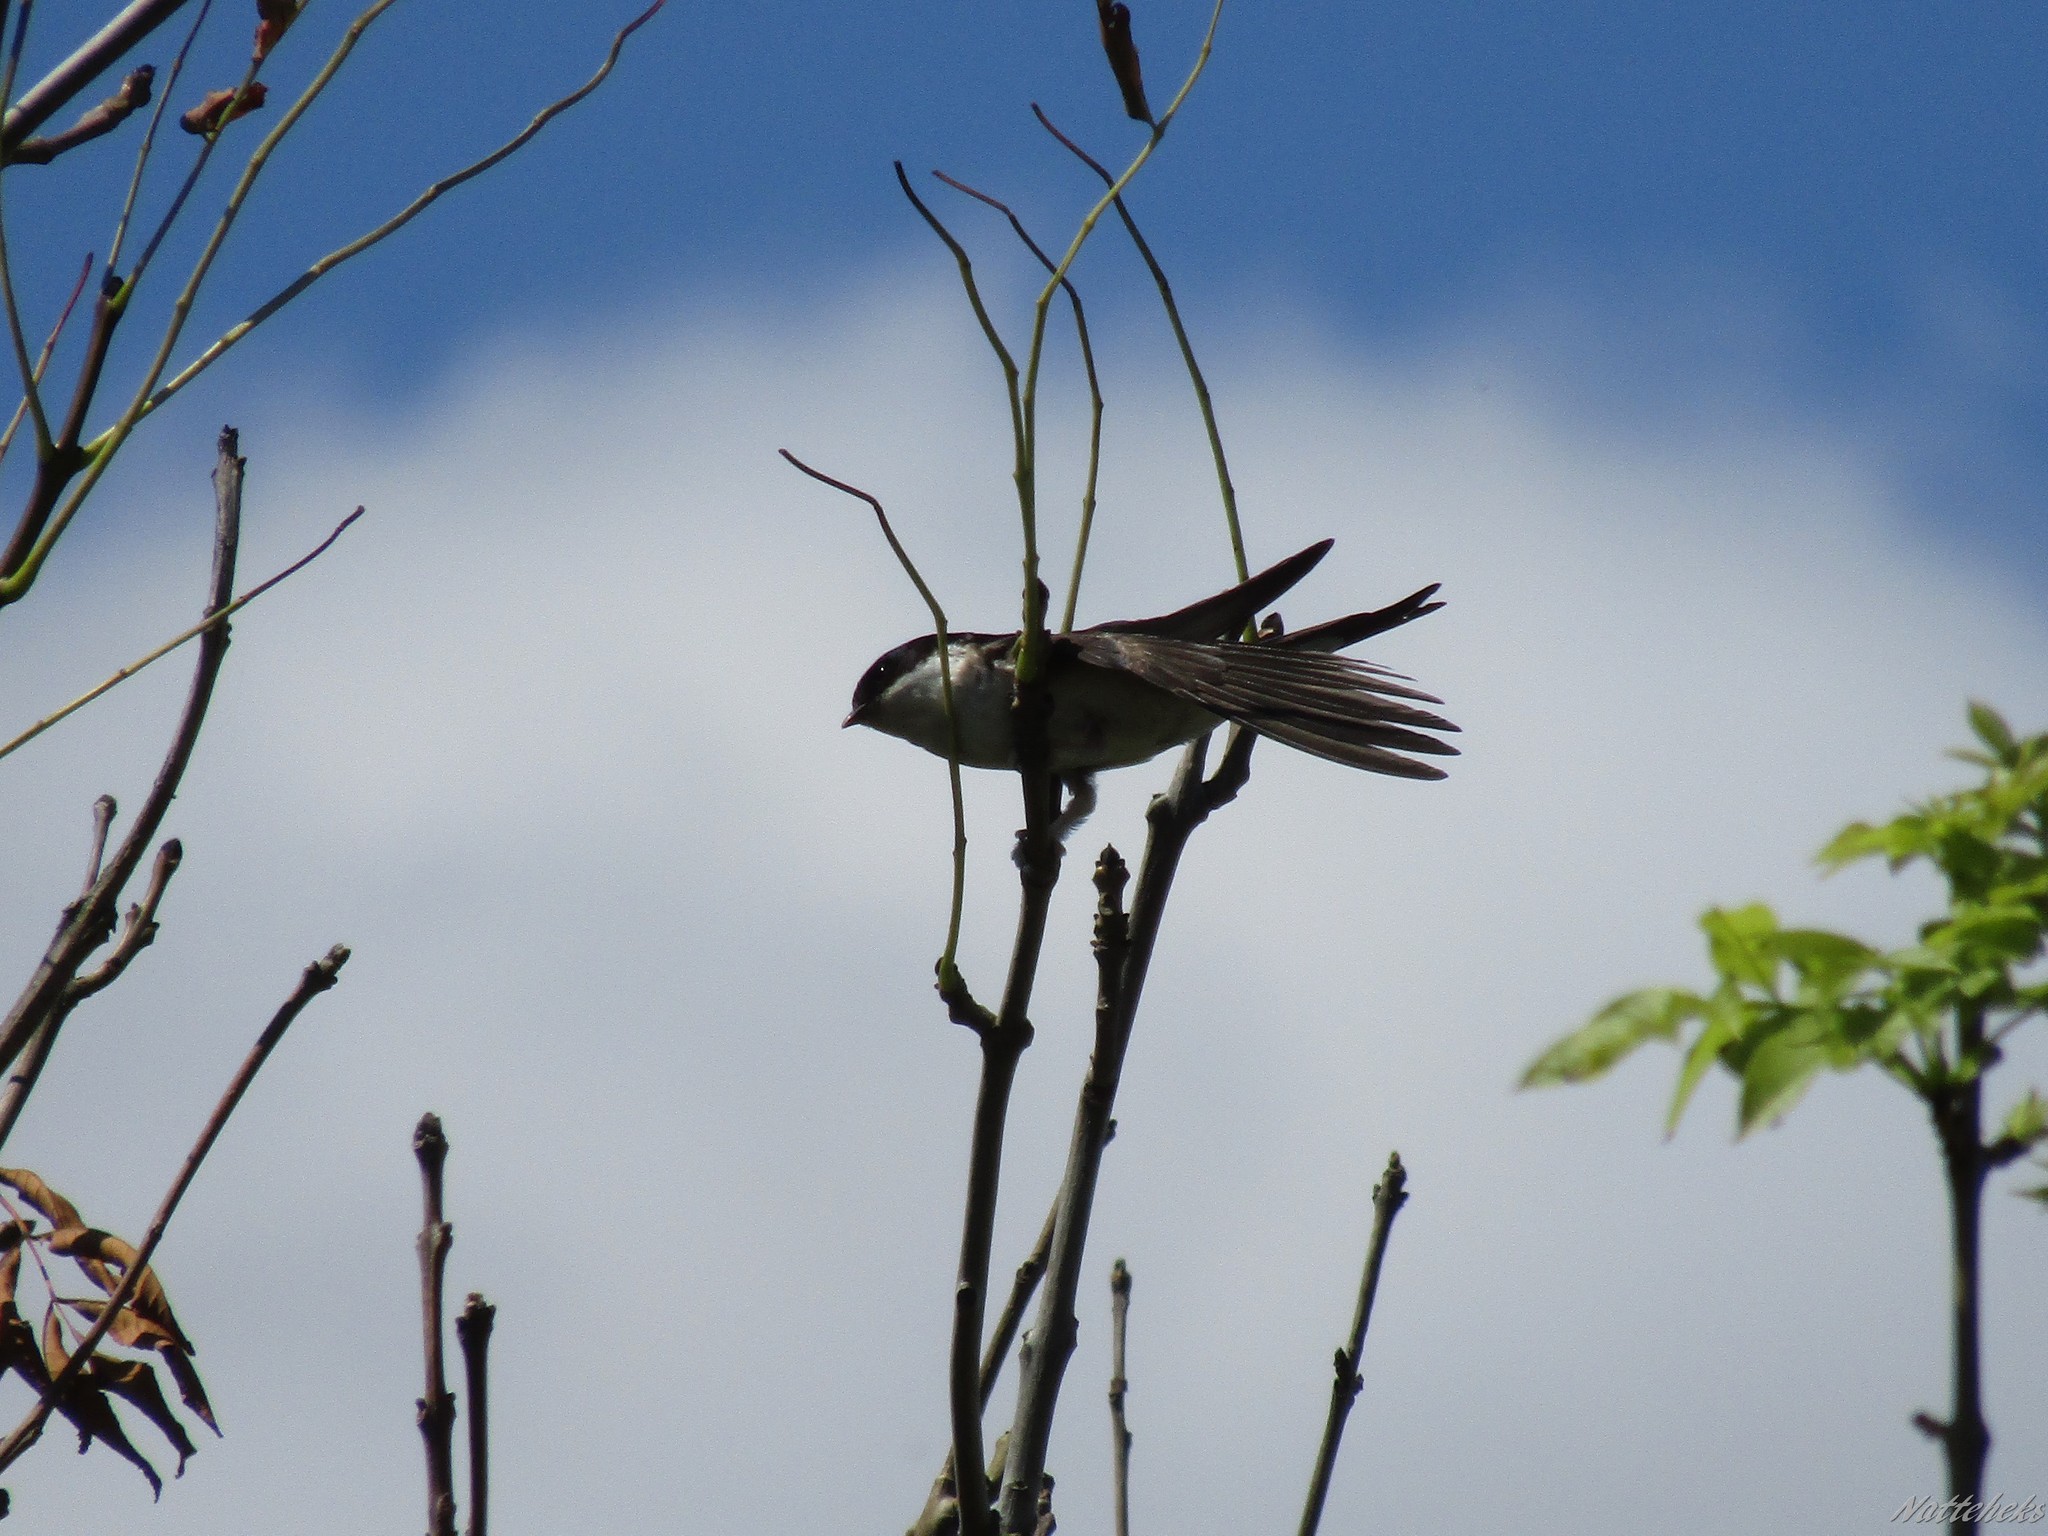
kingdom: Animalia
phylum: Chordata
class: Aves
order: Passeriformes
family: Hirundinidae
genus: Delichon
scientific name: Delichon urbicum
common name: Common house martin
